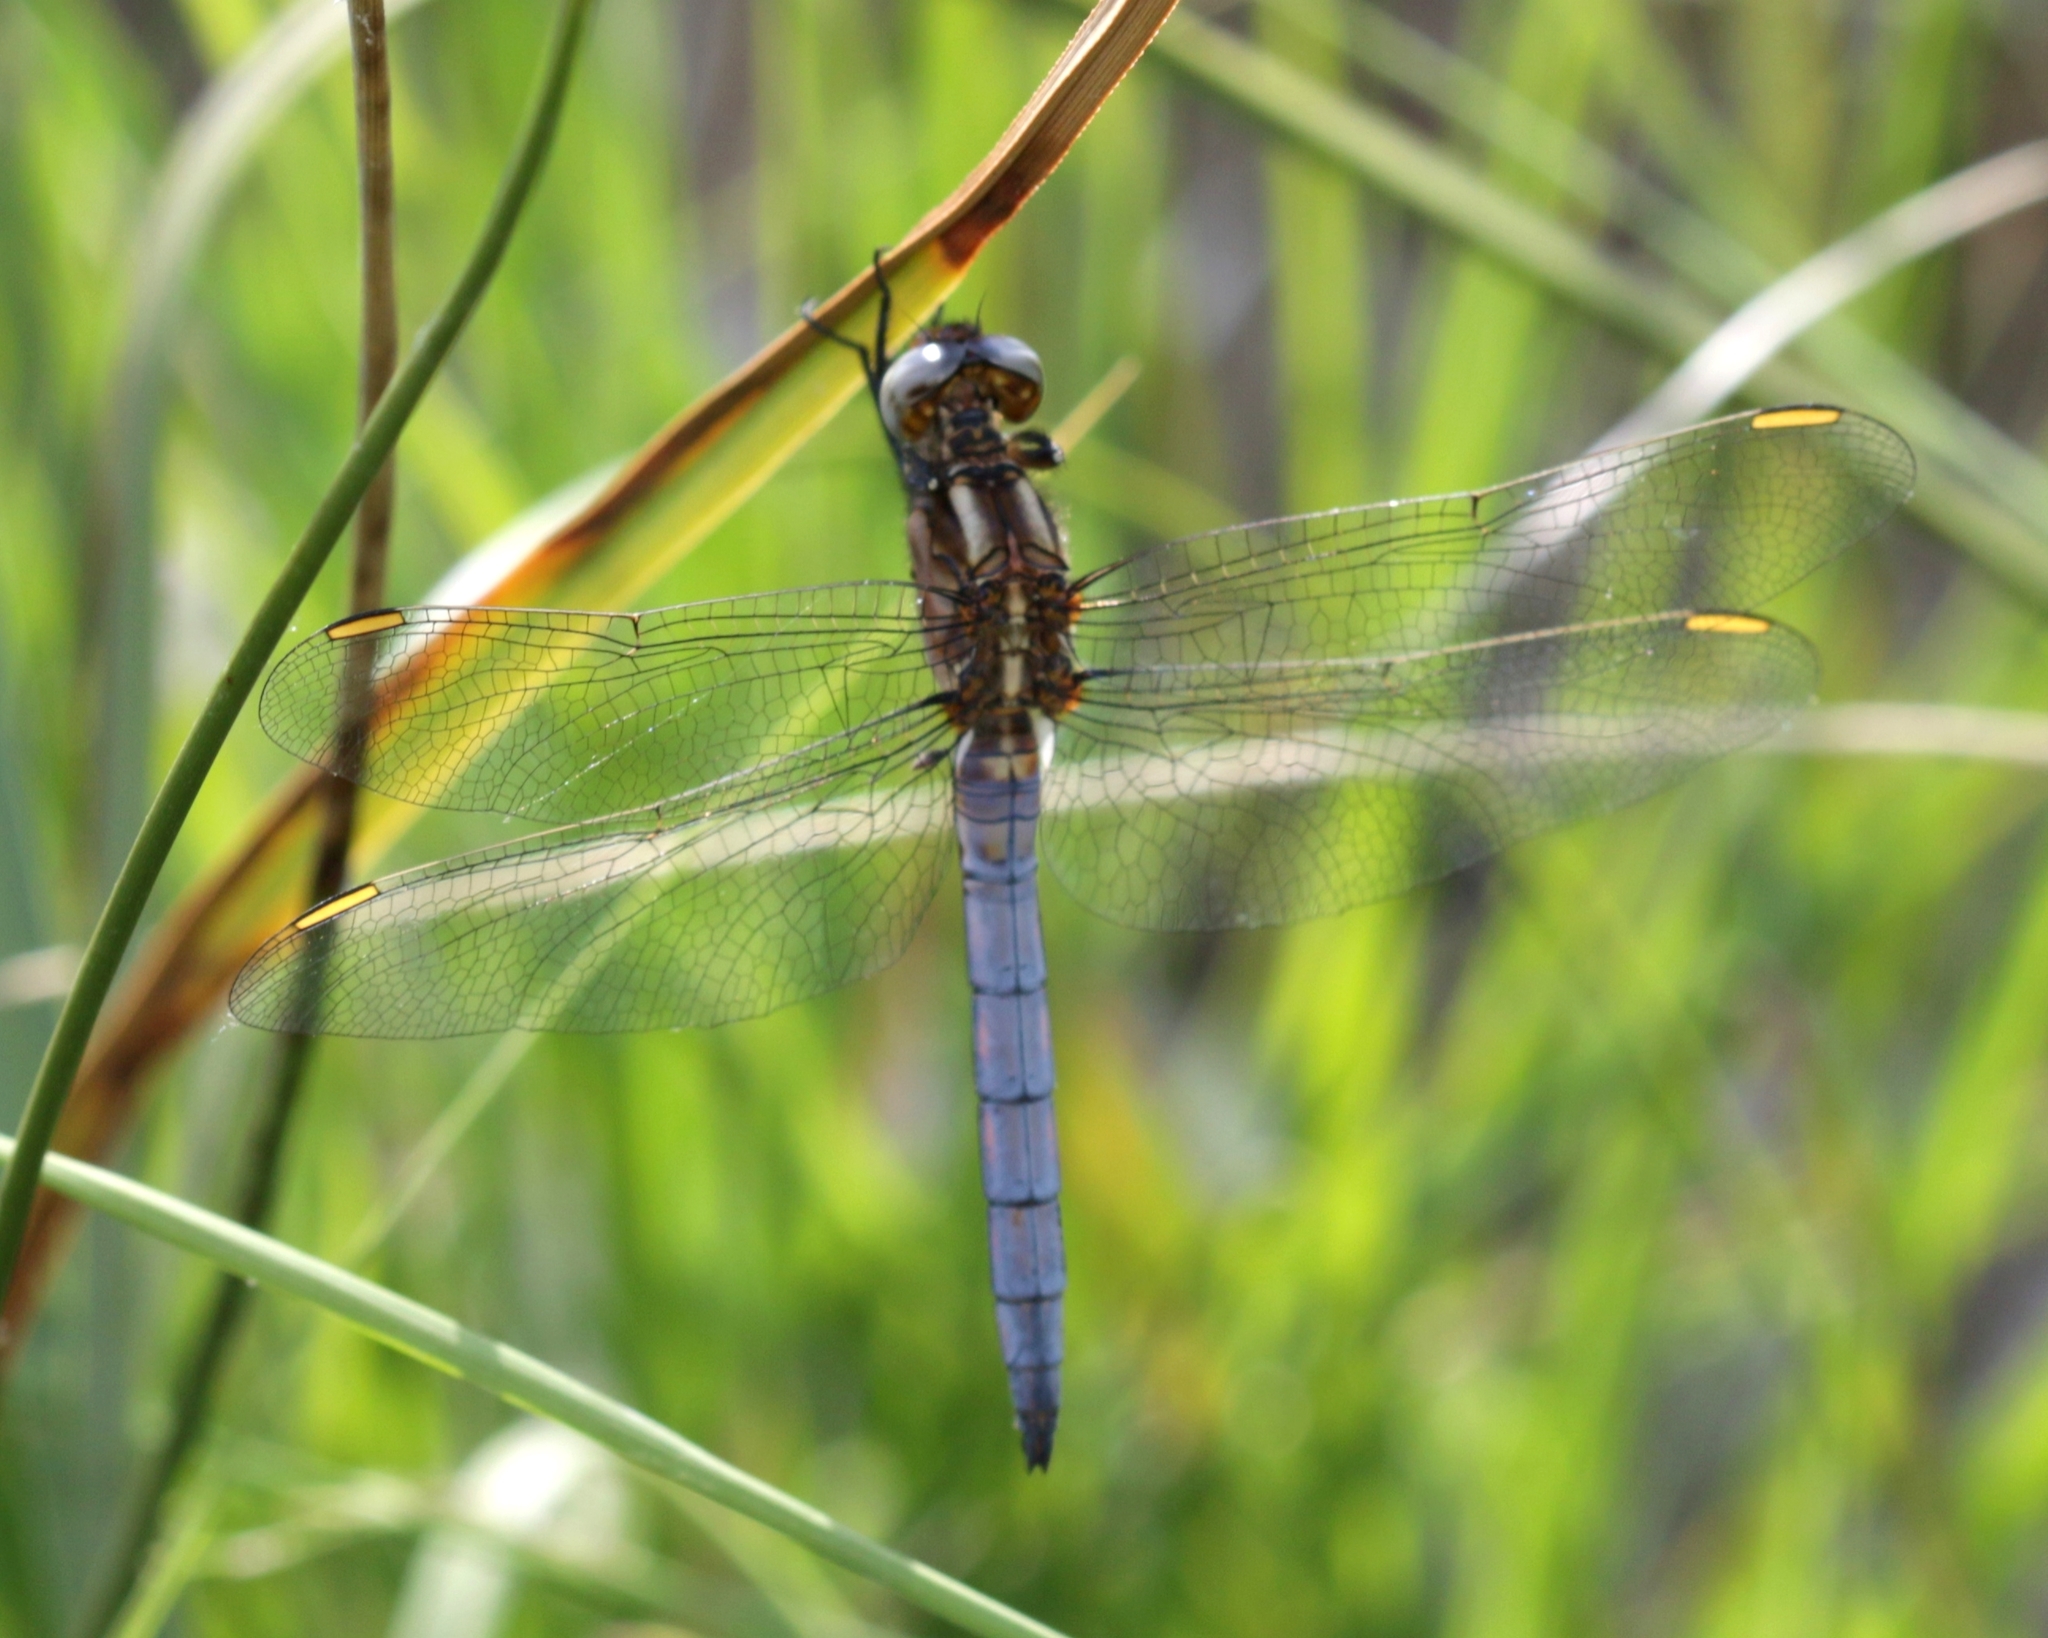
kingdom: Animalia
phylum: Arthropoda
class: Insecta
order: Odonata
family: Libellulidae
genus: Orthetrum
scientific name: Orthetrum coerulescens
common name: Keeled skimmer
